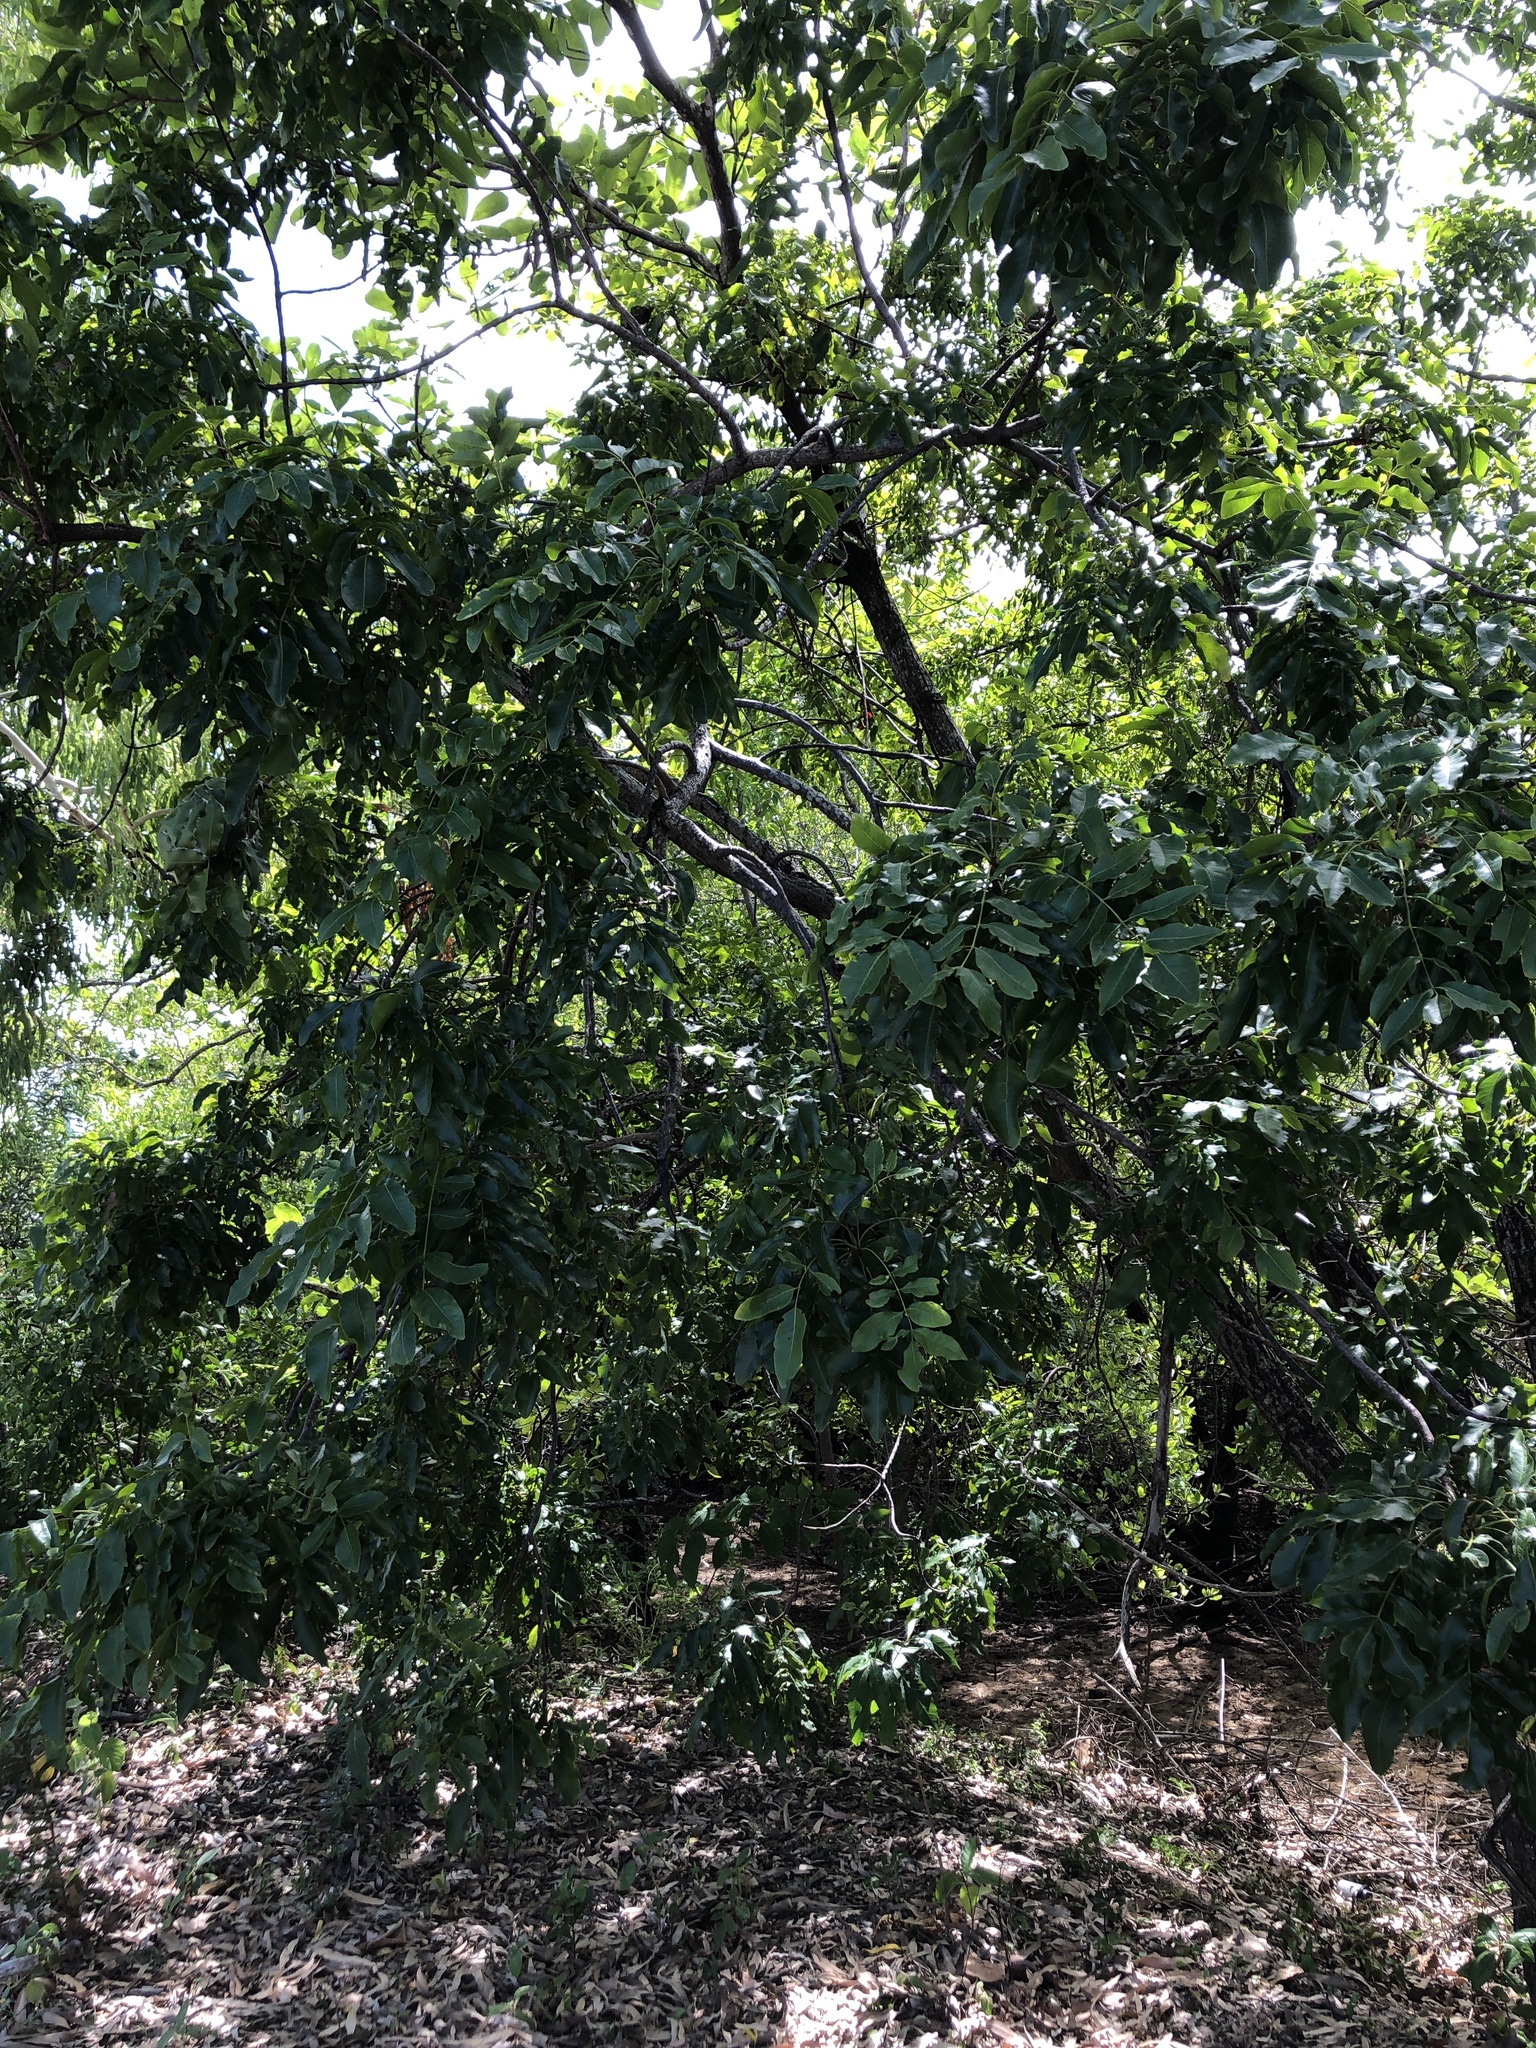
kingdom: Plantae
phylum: Tracheophyta
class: Magnoliopsida
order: Sapindales
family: Anacardiaceae
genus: Pleiogynium
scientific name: Pleiogynium timoriense
